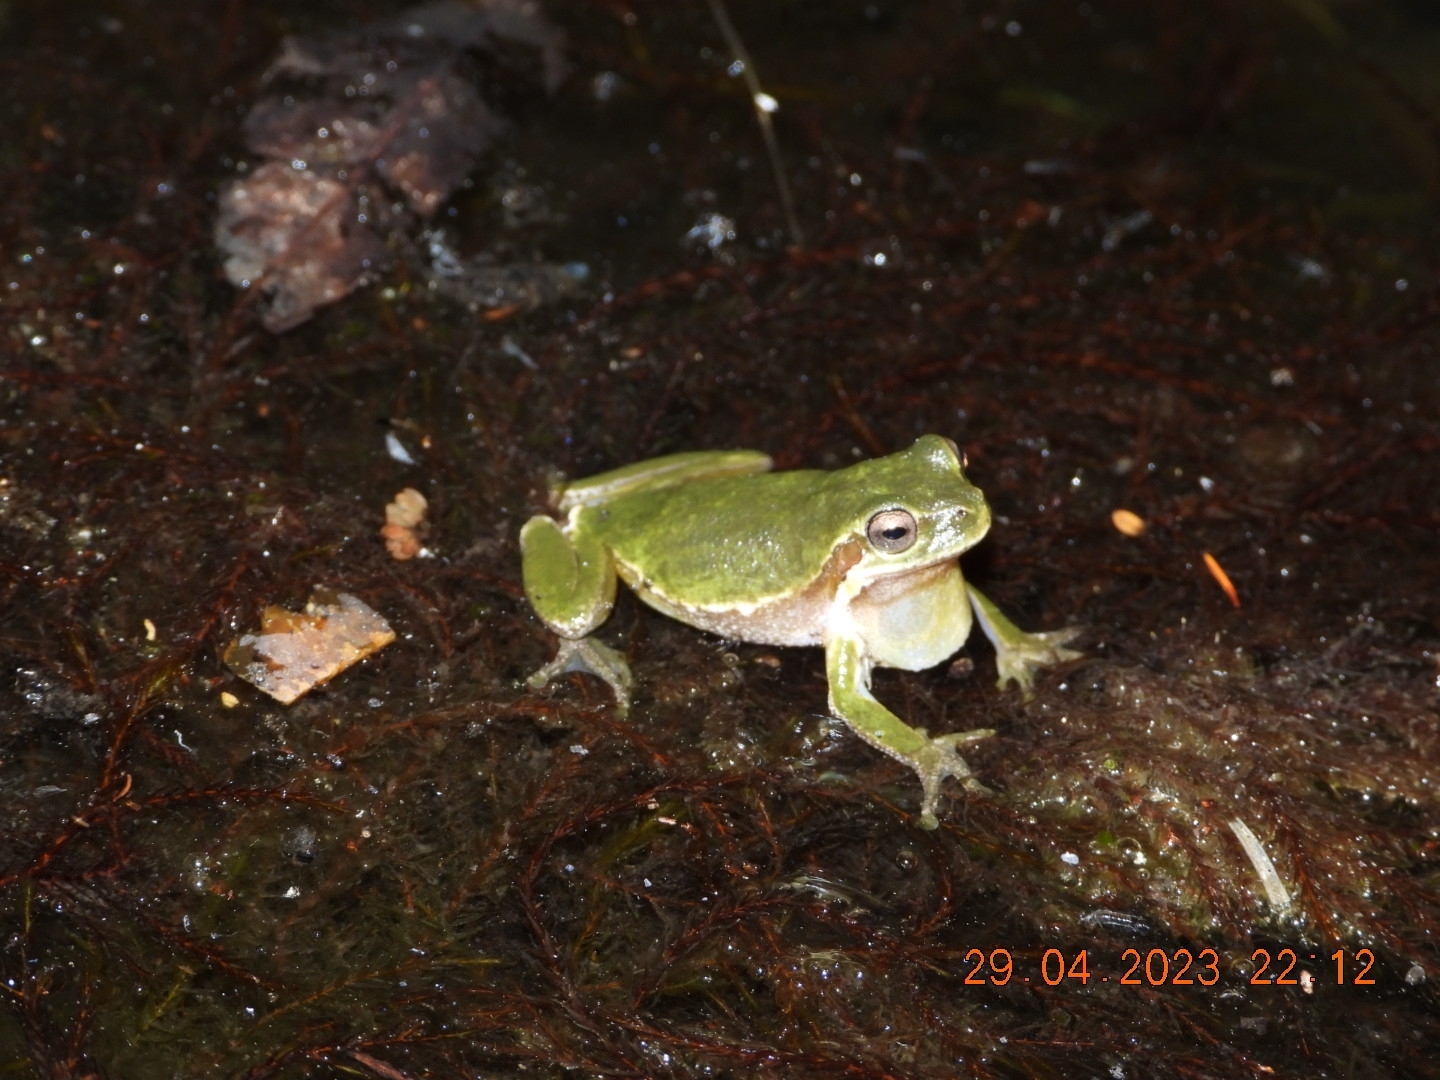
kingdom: Animalia
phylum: Chordata
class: Amphibia
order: Anura
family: Hylidae
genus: Hyla
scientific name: Hyla sarda
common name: Sardinian tree frog
